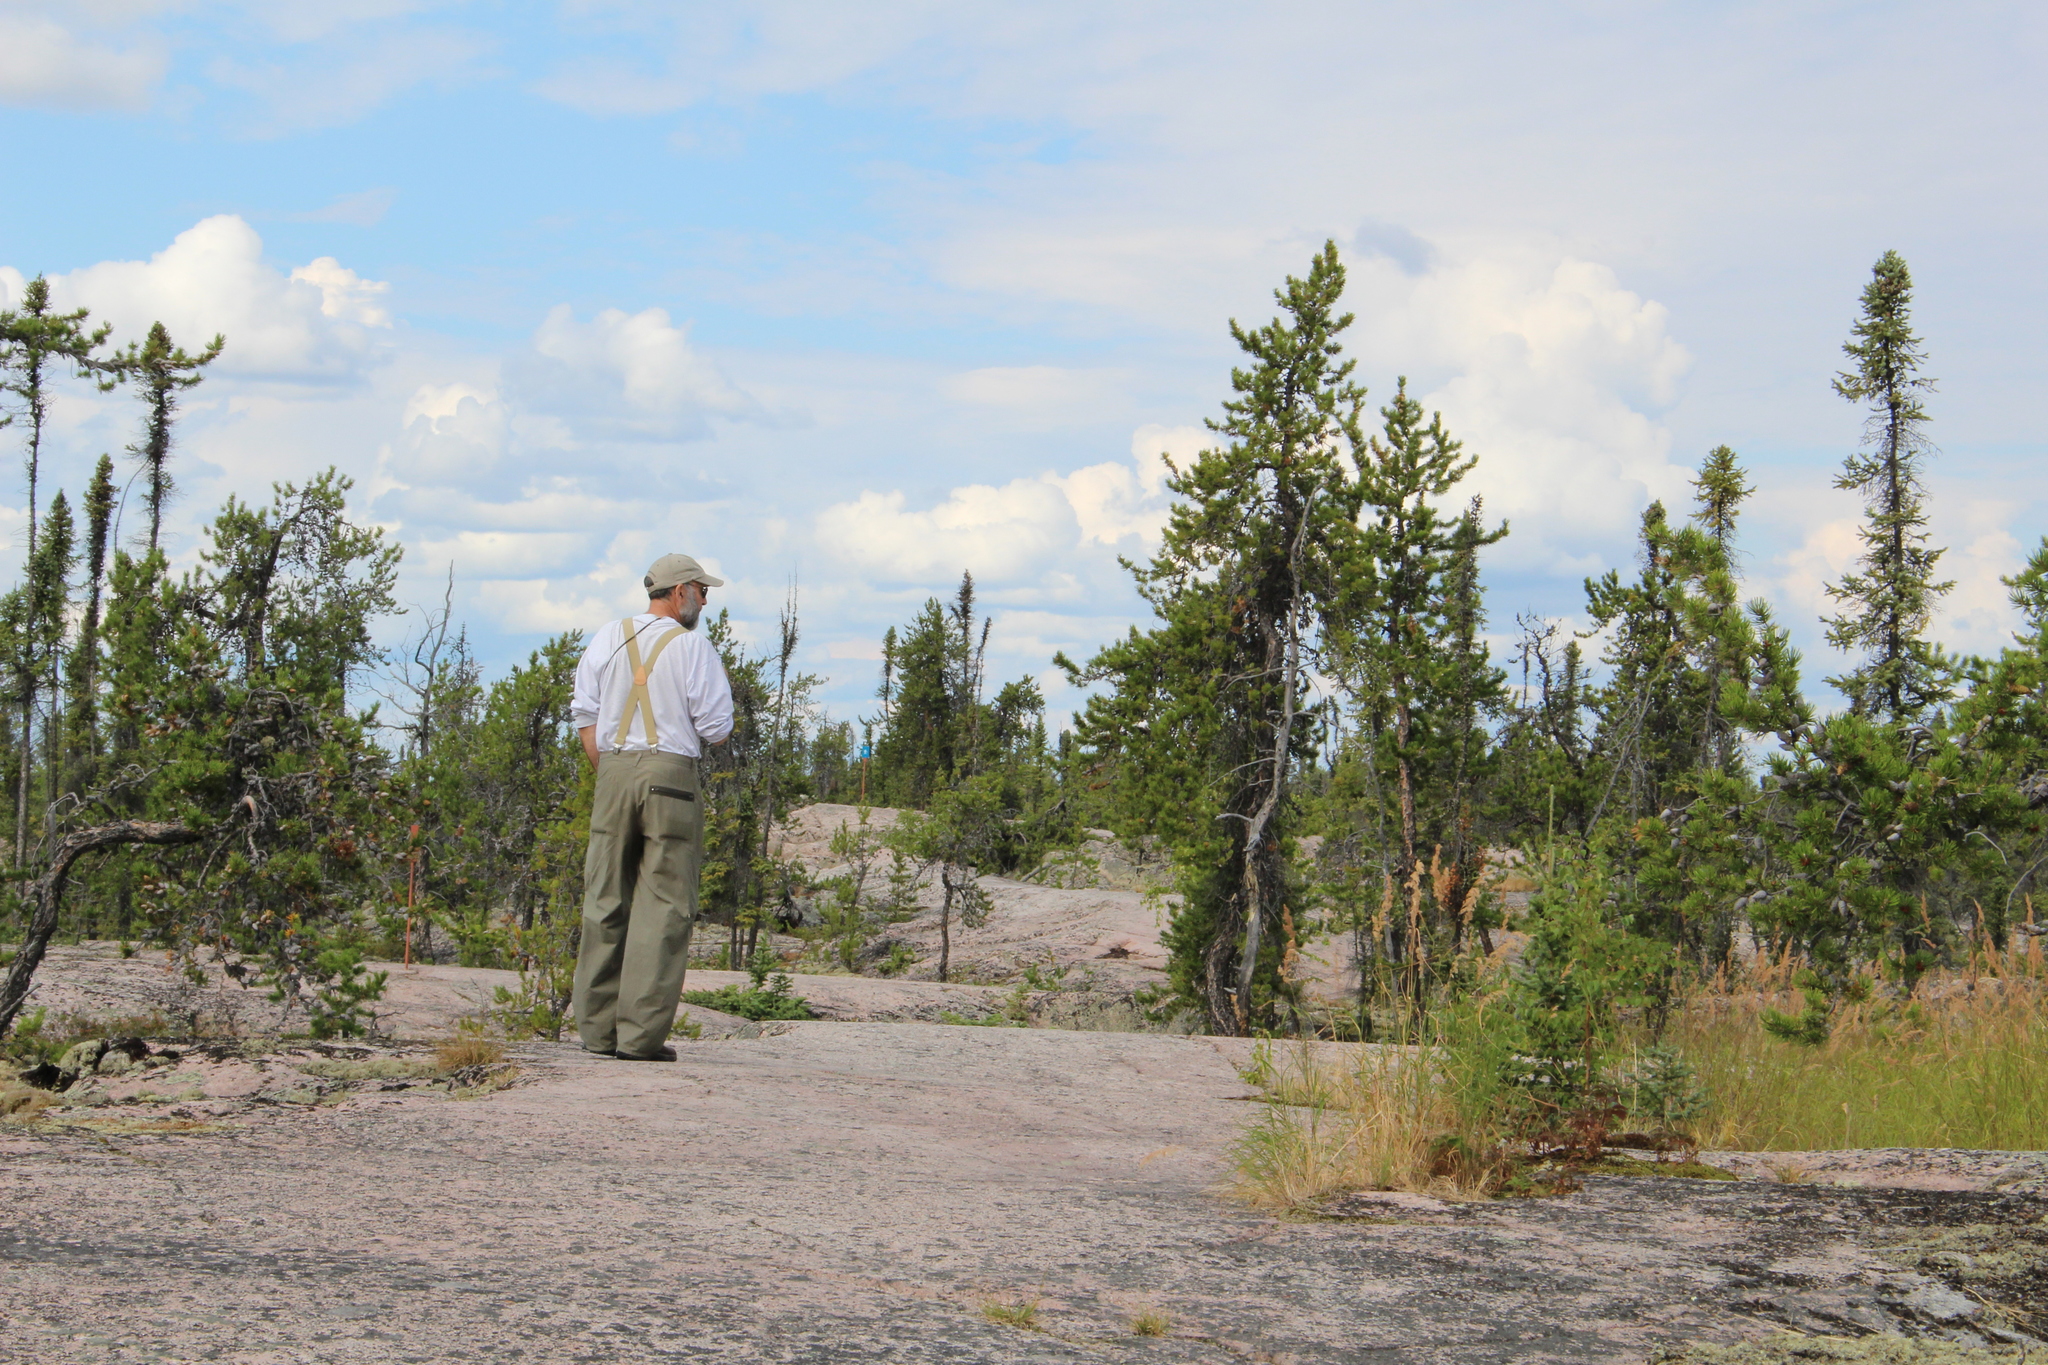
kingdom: Plantae
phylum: Tracheophyta
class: Pinopsida
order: Pinales
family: Pinaceae
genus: Pinus
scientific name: Pinus banksiana
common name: Jack pine
